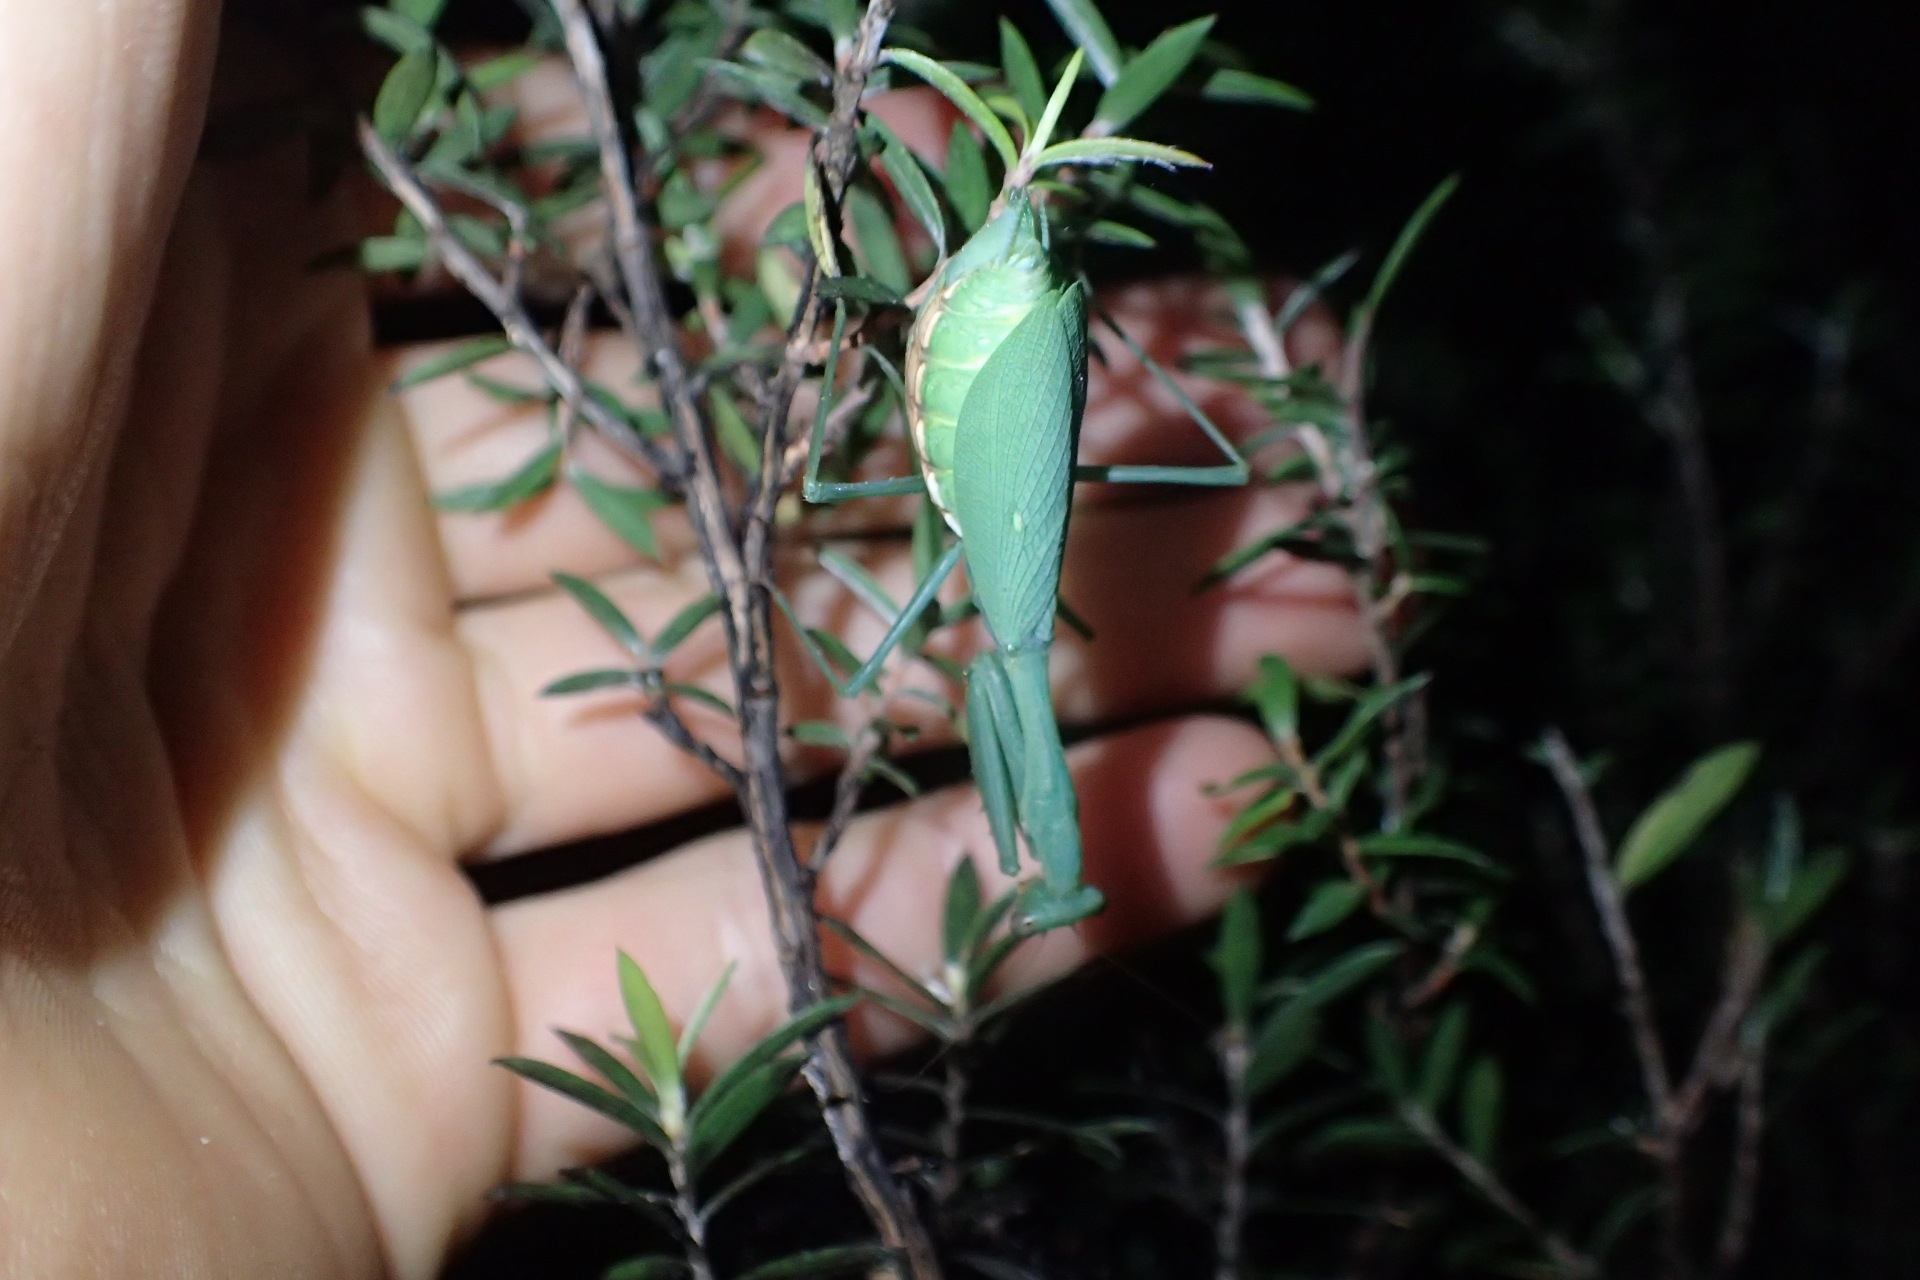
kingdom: Animalia
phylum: Arthropoda
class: Insecta
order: Mantodea
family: Miomantidae
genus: Miomantis
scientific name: Miomantis caffra
